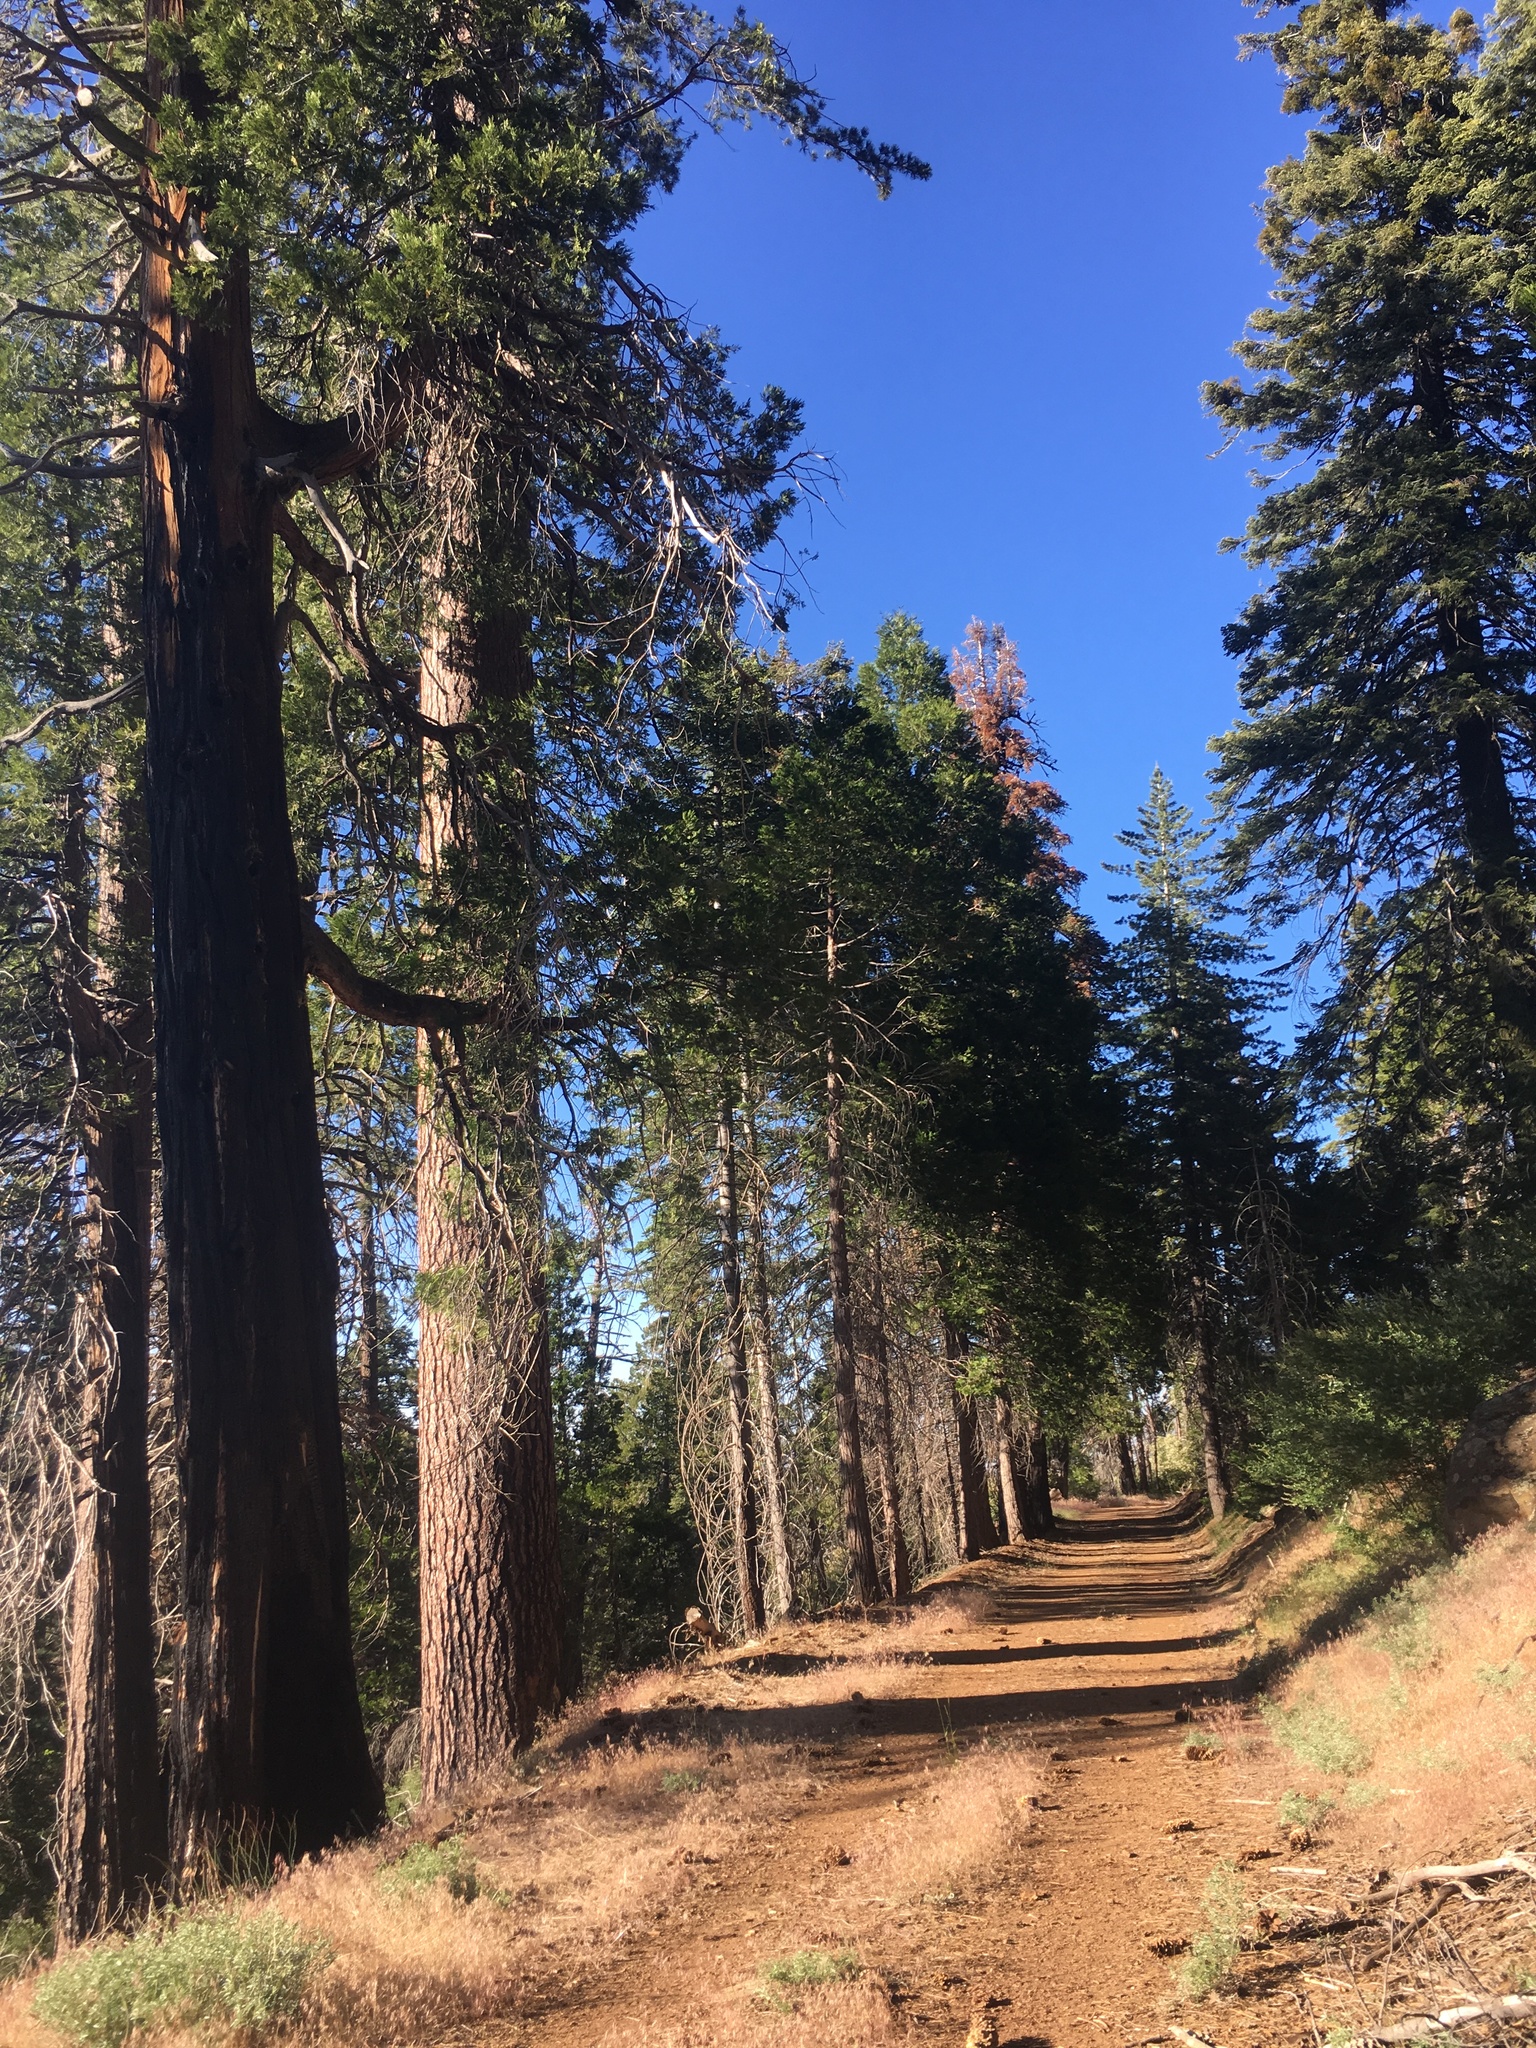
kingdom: Plantae
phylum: Tracheophyta
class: Pinopsida
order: Pinales
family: Cupressaceae
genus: Calocedrus
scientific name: Calocedrus decurrens
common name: Californian incense-cedar
